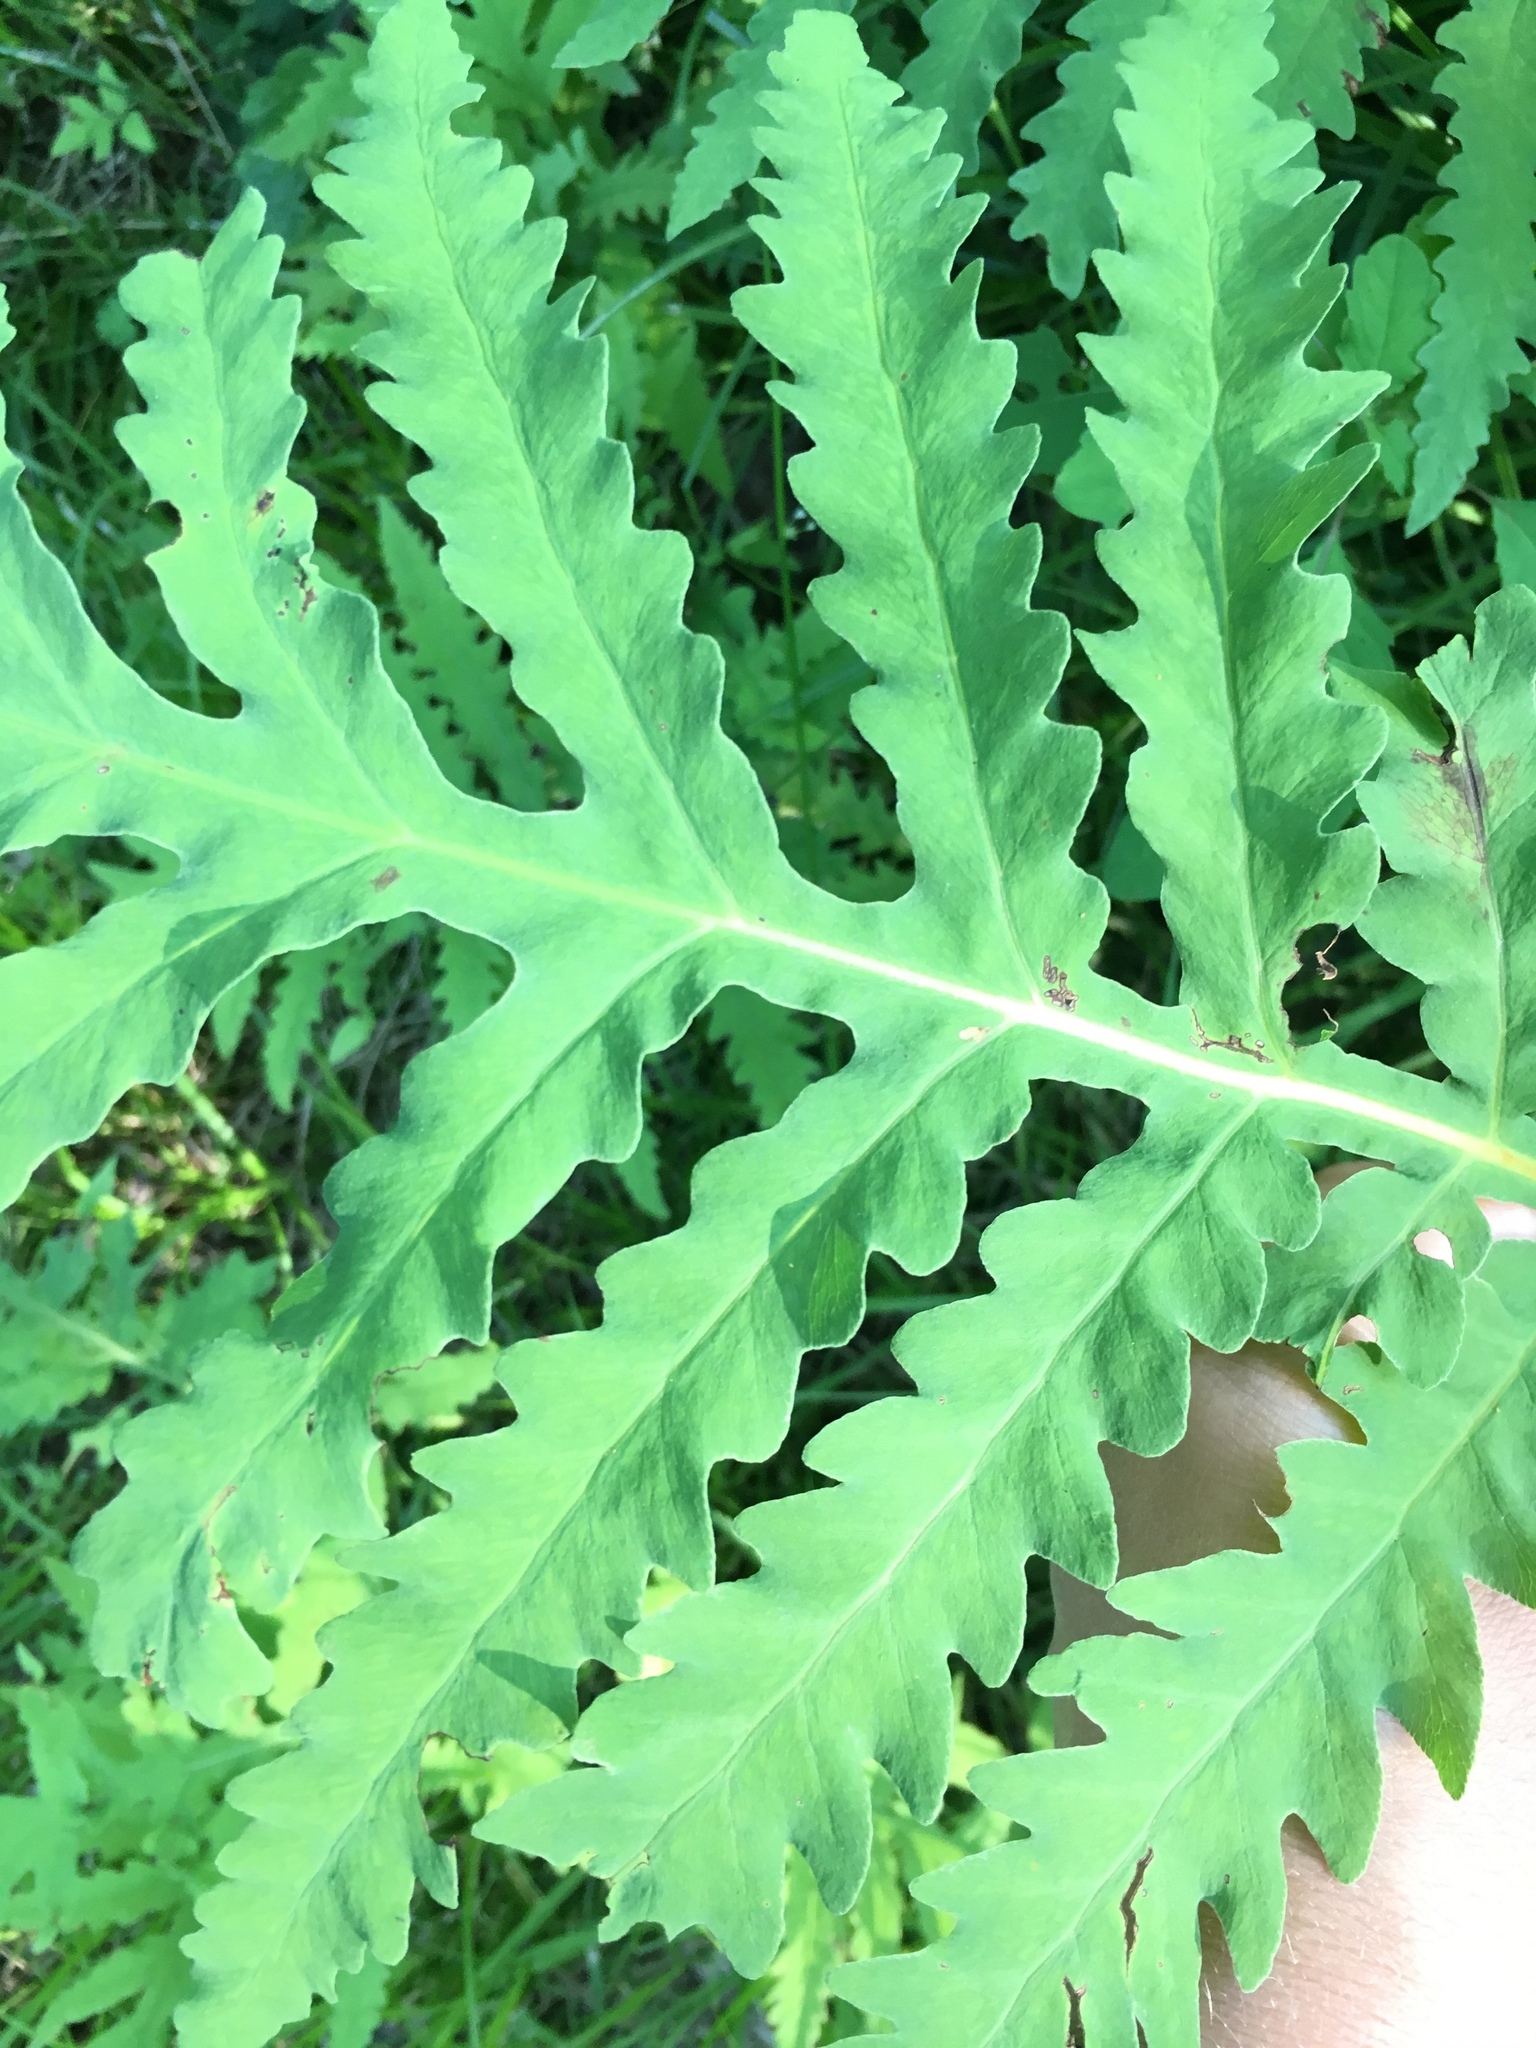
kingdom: Plantae
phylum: Tracheophyta
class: Polypodiopsida
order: Polypodiales
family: Onocleaceae
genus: Onoclea
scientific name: Onoclea sensibilis
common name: Sensitive fern
